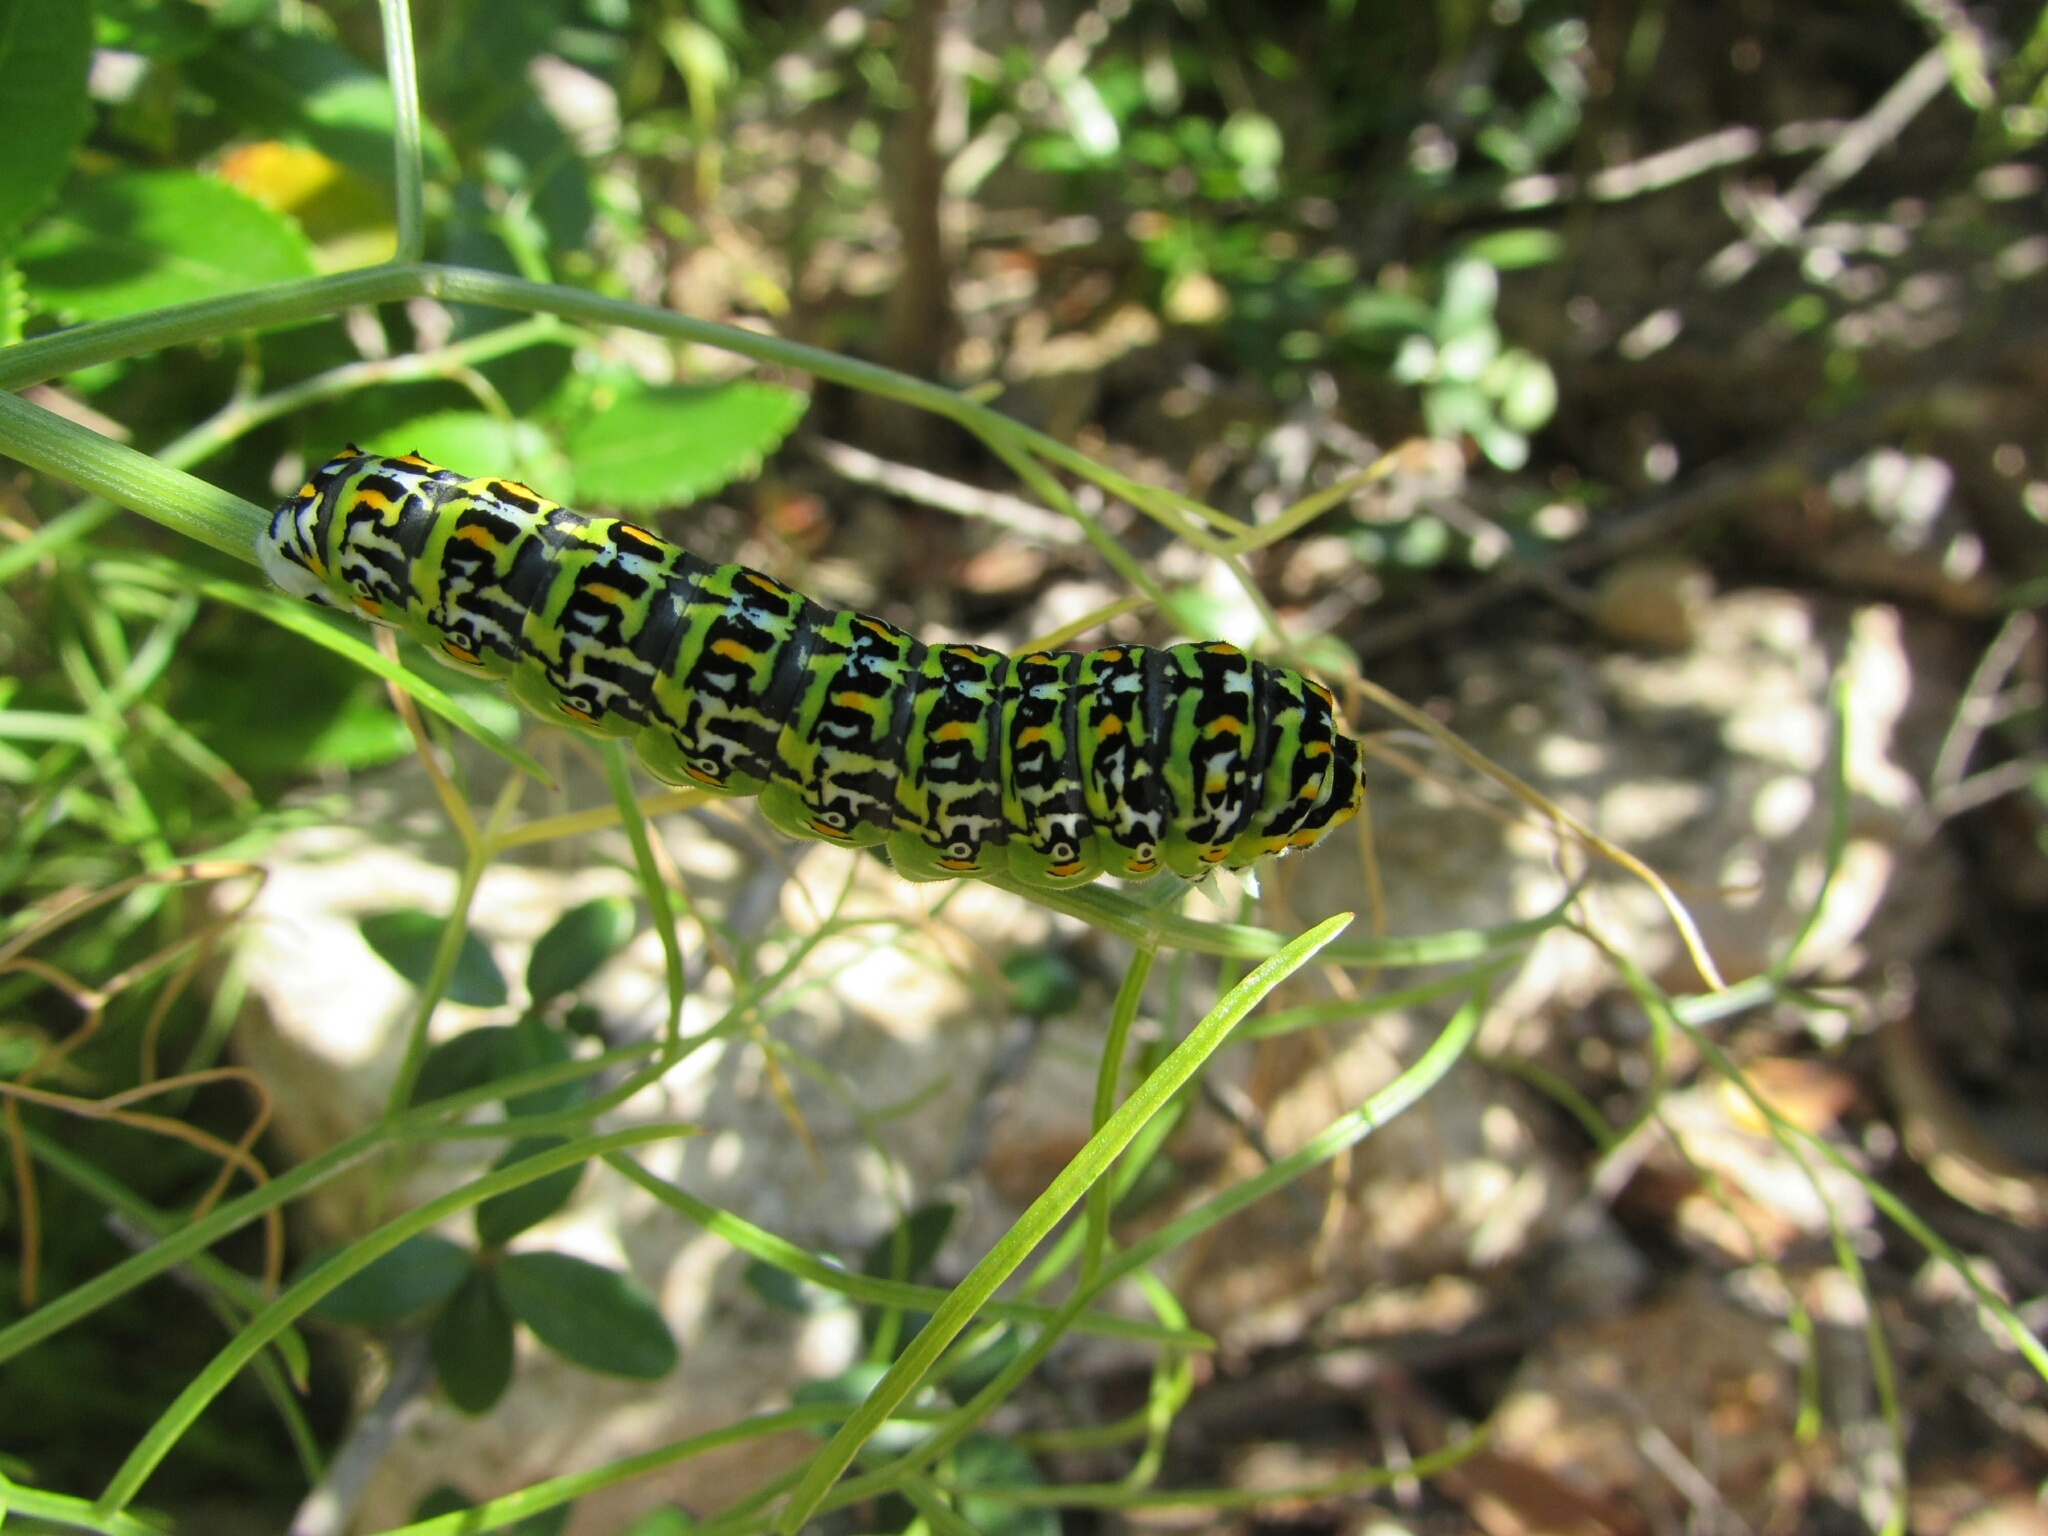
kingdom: Animalia
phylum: Arthropoda
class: Insecta
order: Lepidoptera
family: Papilionidae
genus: Papilio
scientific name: Papilio hospiton
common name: Corsican swallowtail
